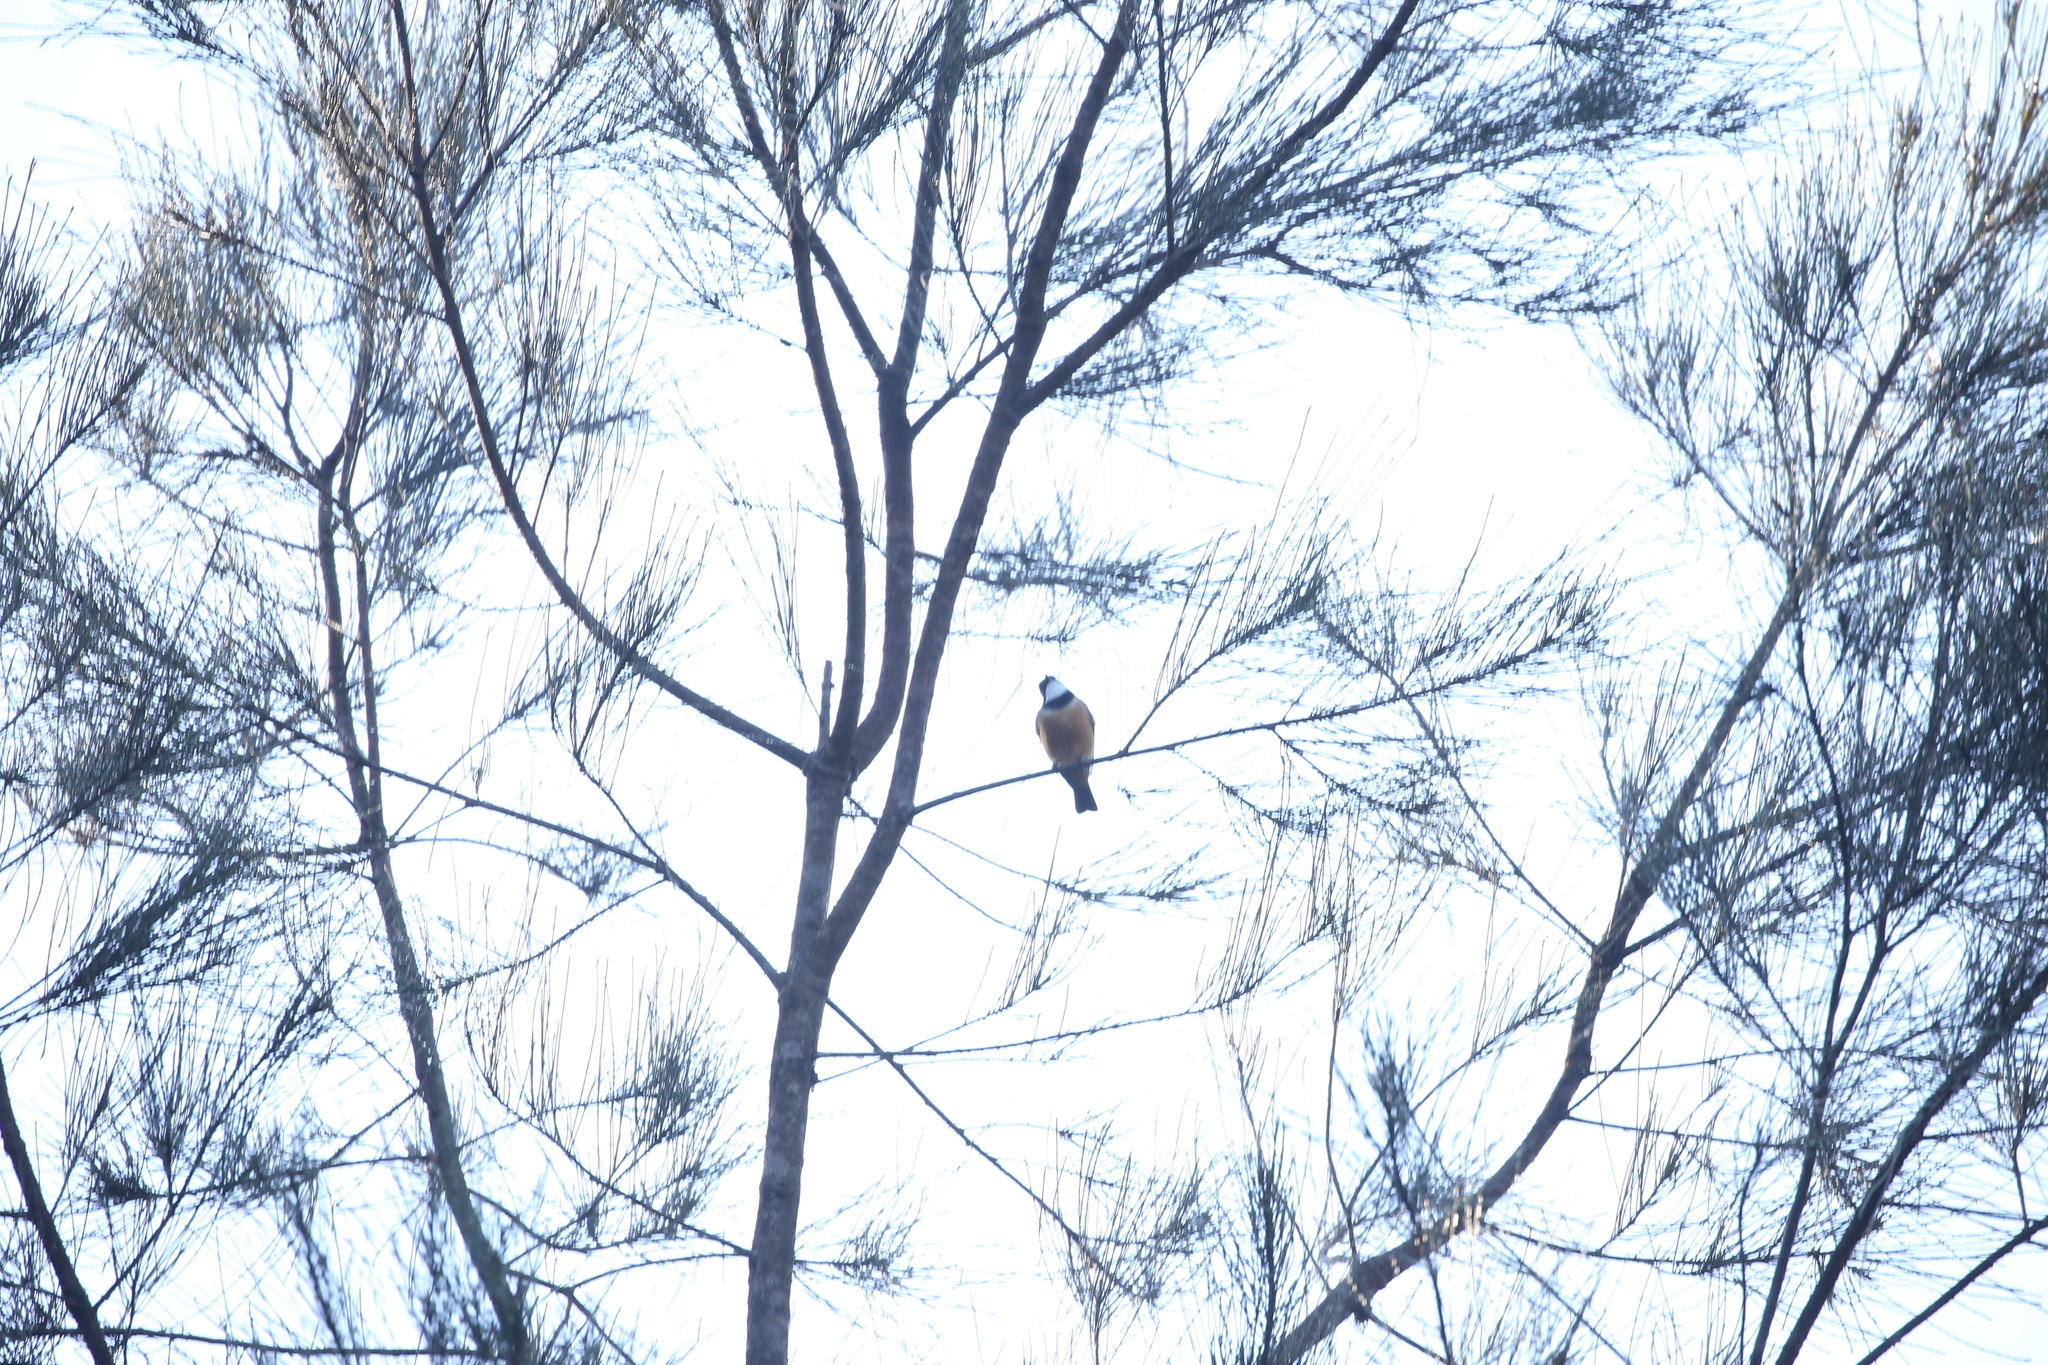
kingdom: Animalia
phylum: Chordata
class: Aves
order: Passeriformes
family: Pachycephalidae
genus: Pachycephala
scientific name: Pachycephala rufiventris
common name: Rufous whistler
